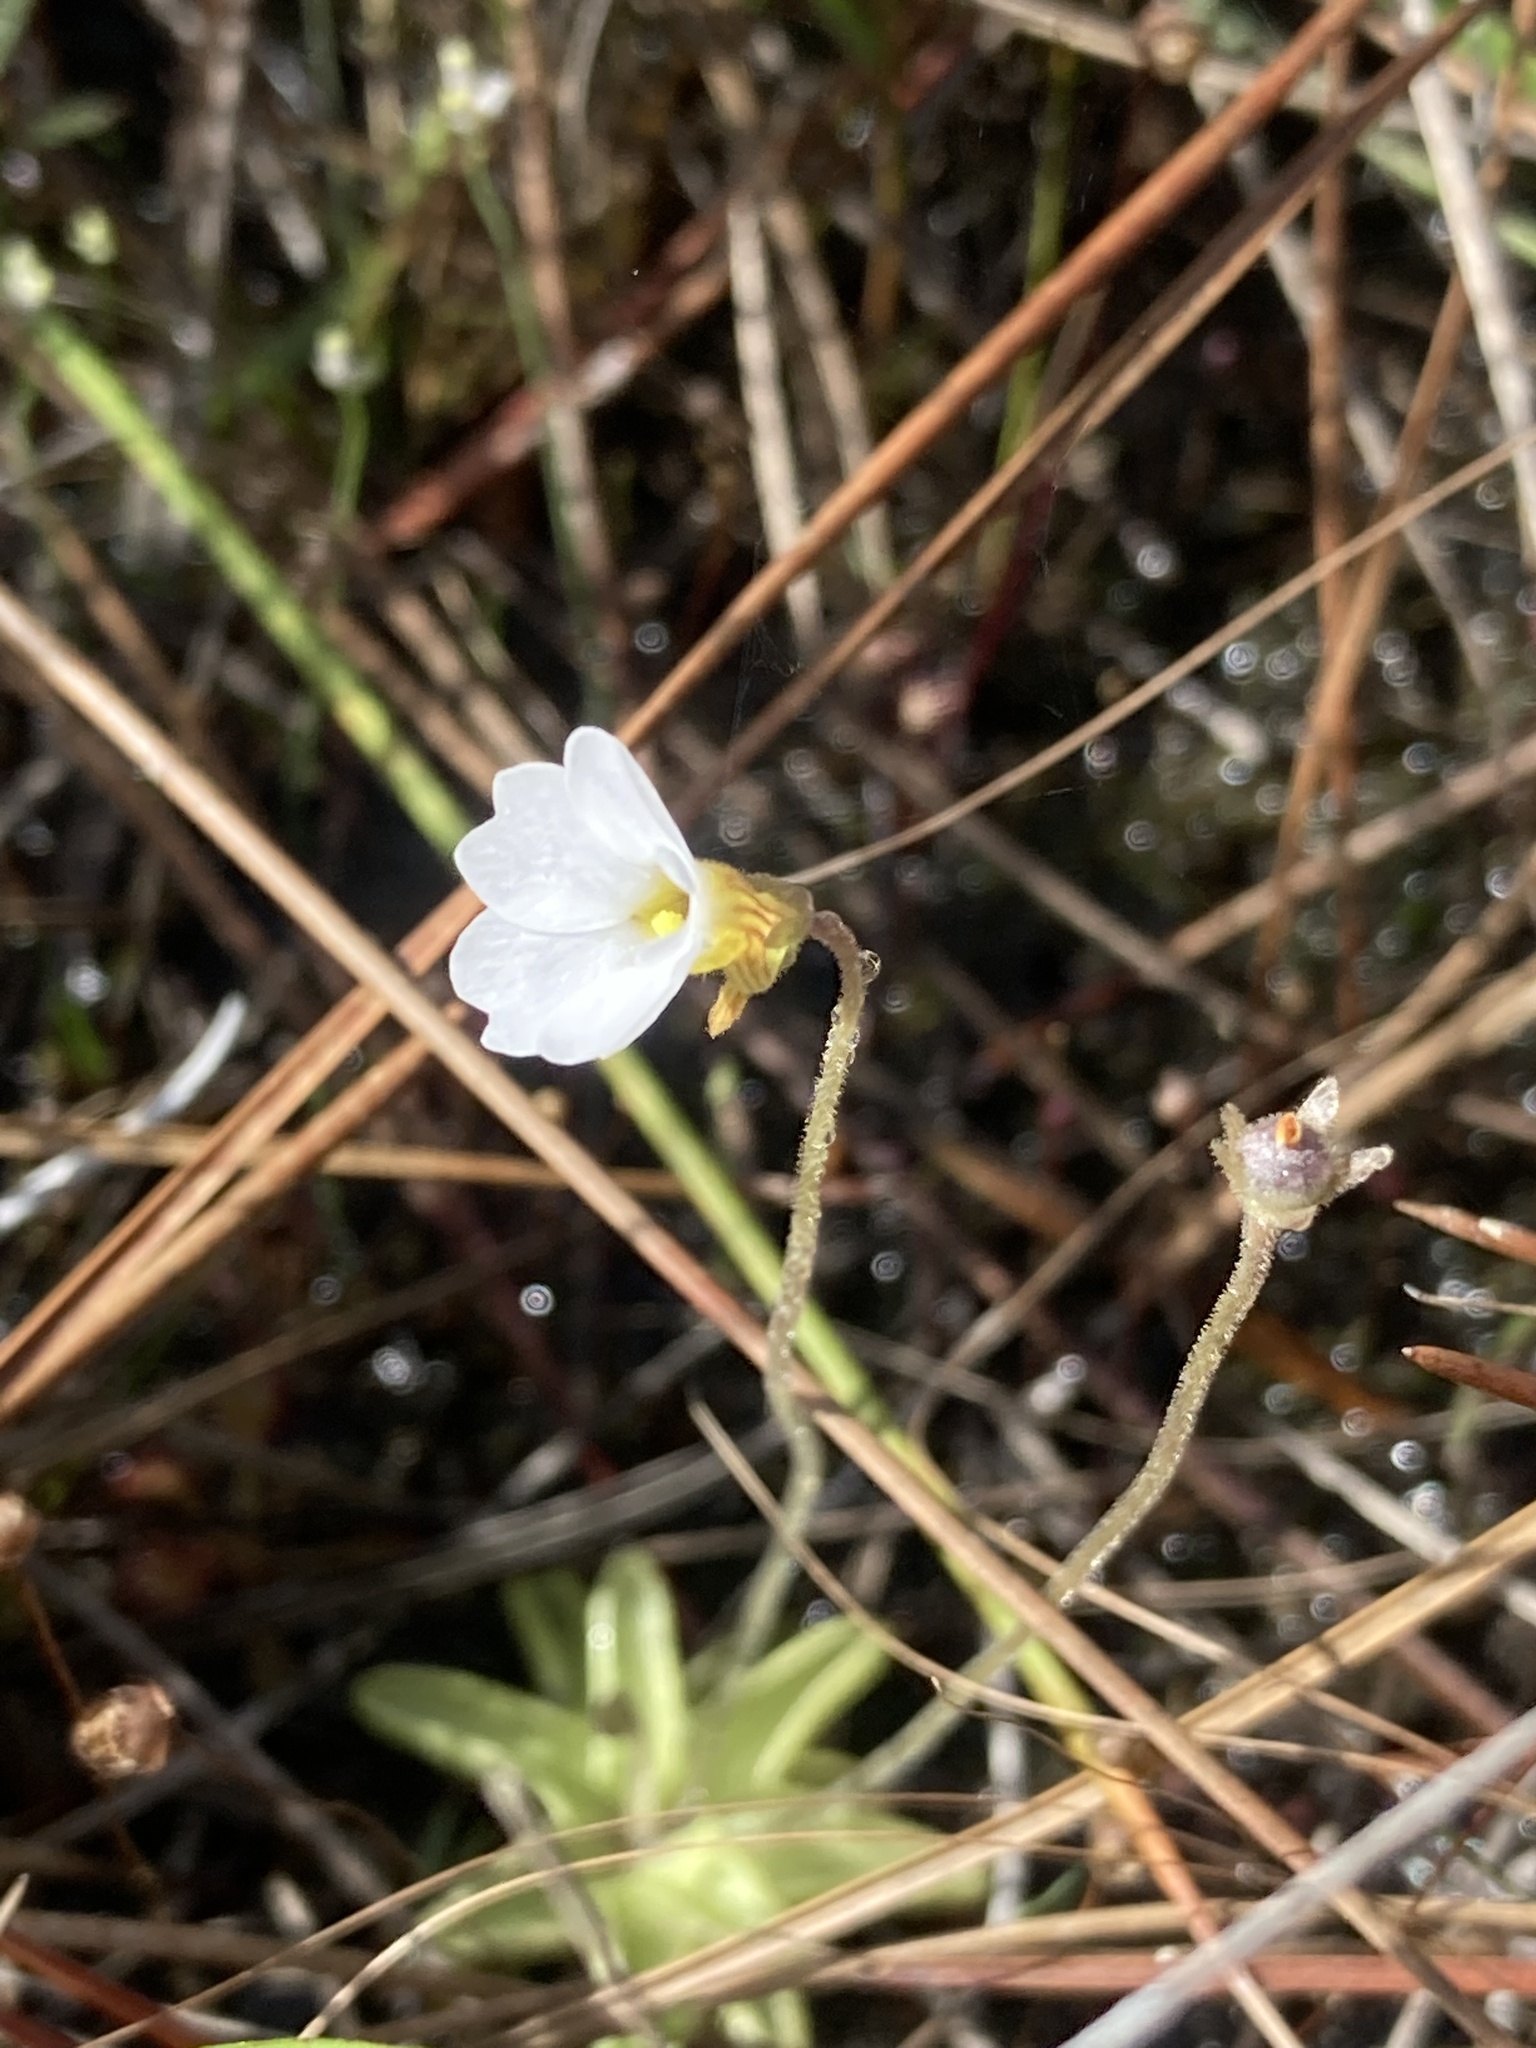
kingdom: Plantae
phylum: Tracheophyta
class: Magnoliopsida
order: Lamiales
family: Lentibulariaceae
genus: Pinguicula
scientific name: Pinguicula pumila
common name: Small butterwort
